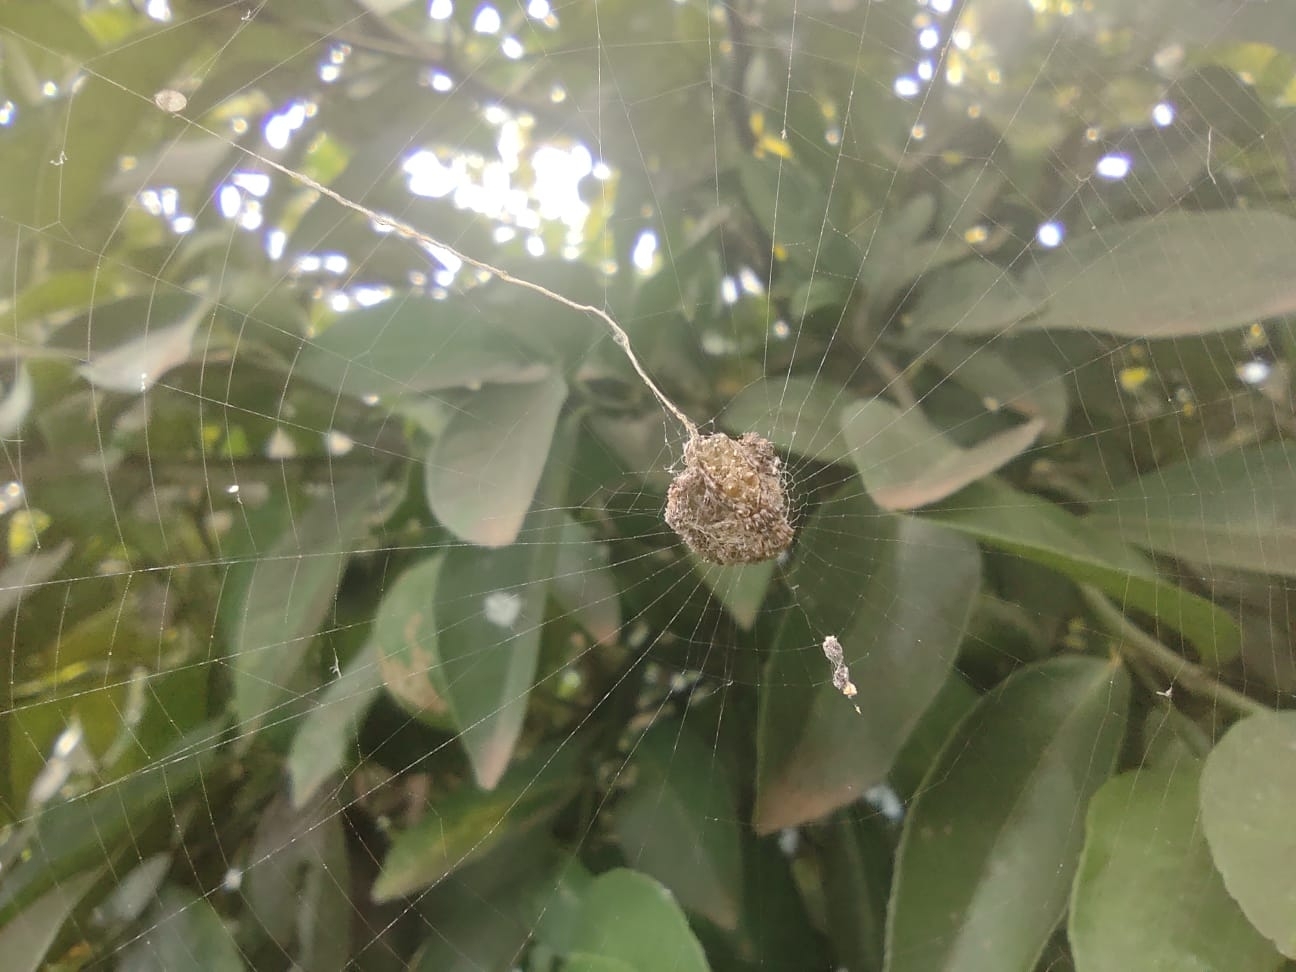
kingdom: Animalia
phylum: Arthropoda
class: Arachnida
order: Araneae
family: Araneidae
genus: Cyclosa
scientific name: Cyclosa diversa
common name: Orb weavers
